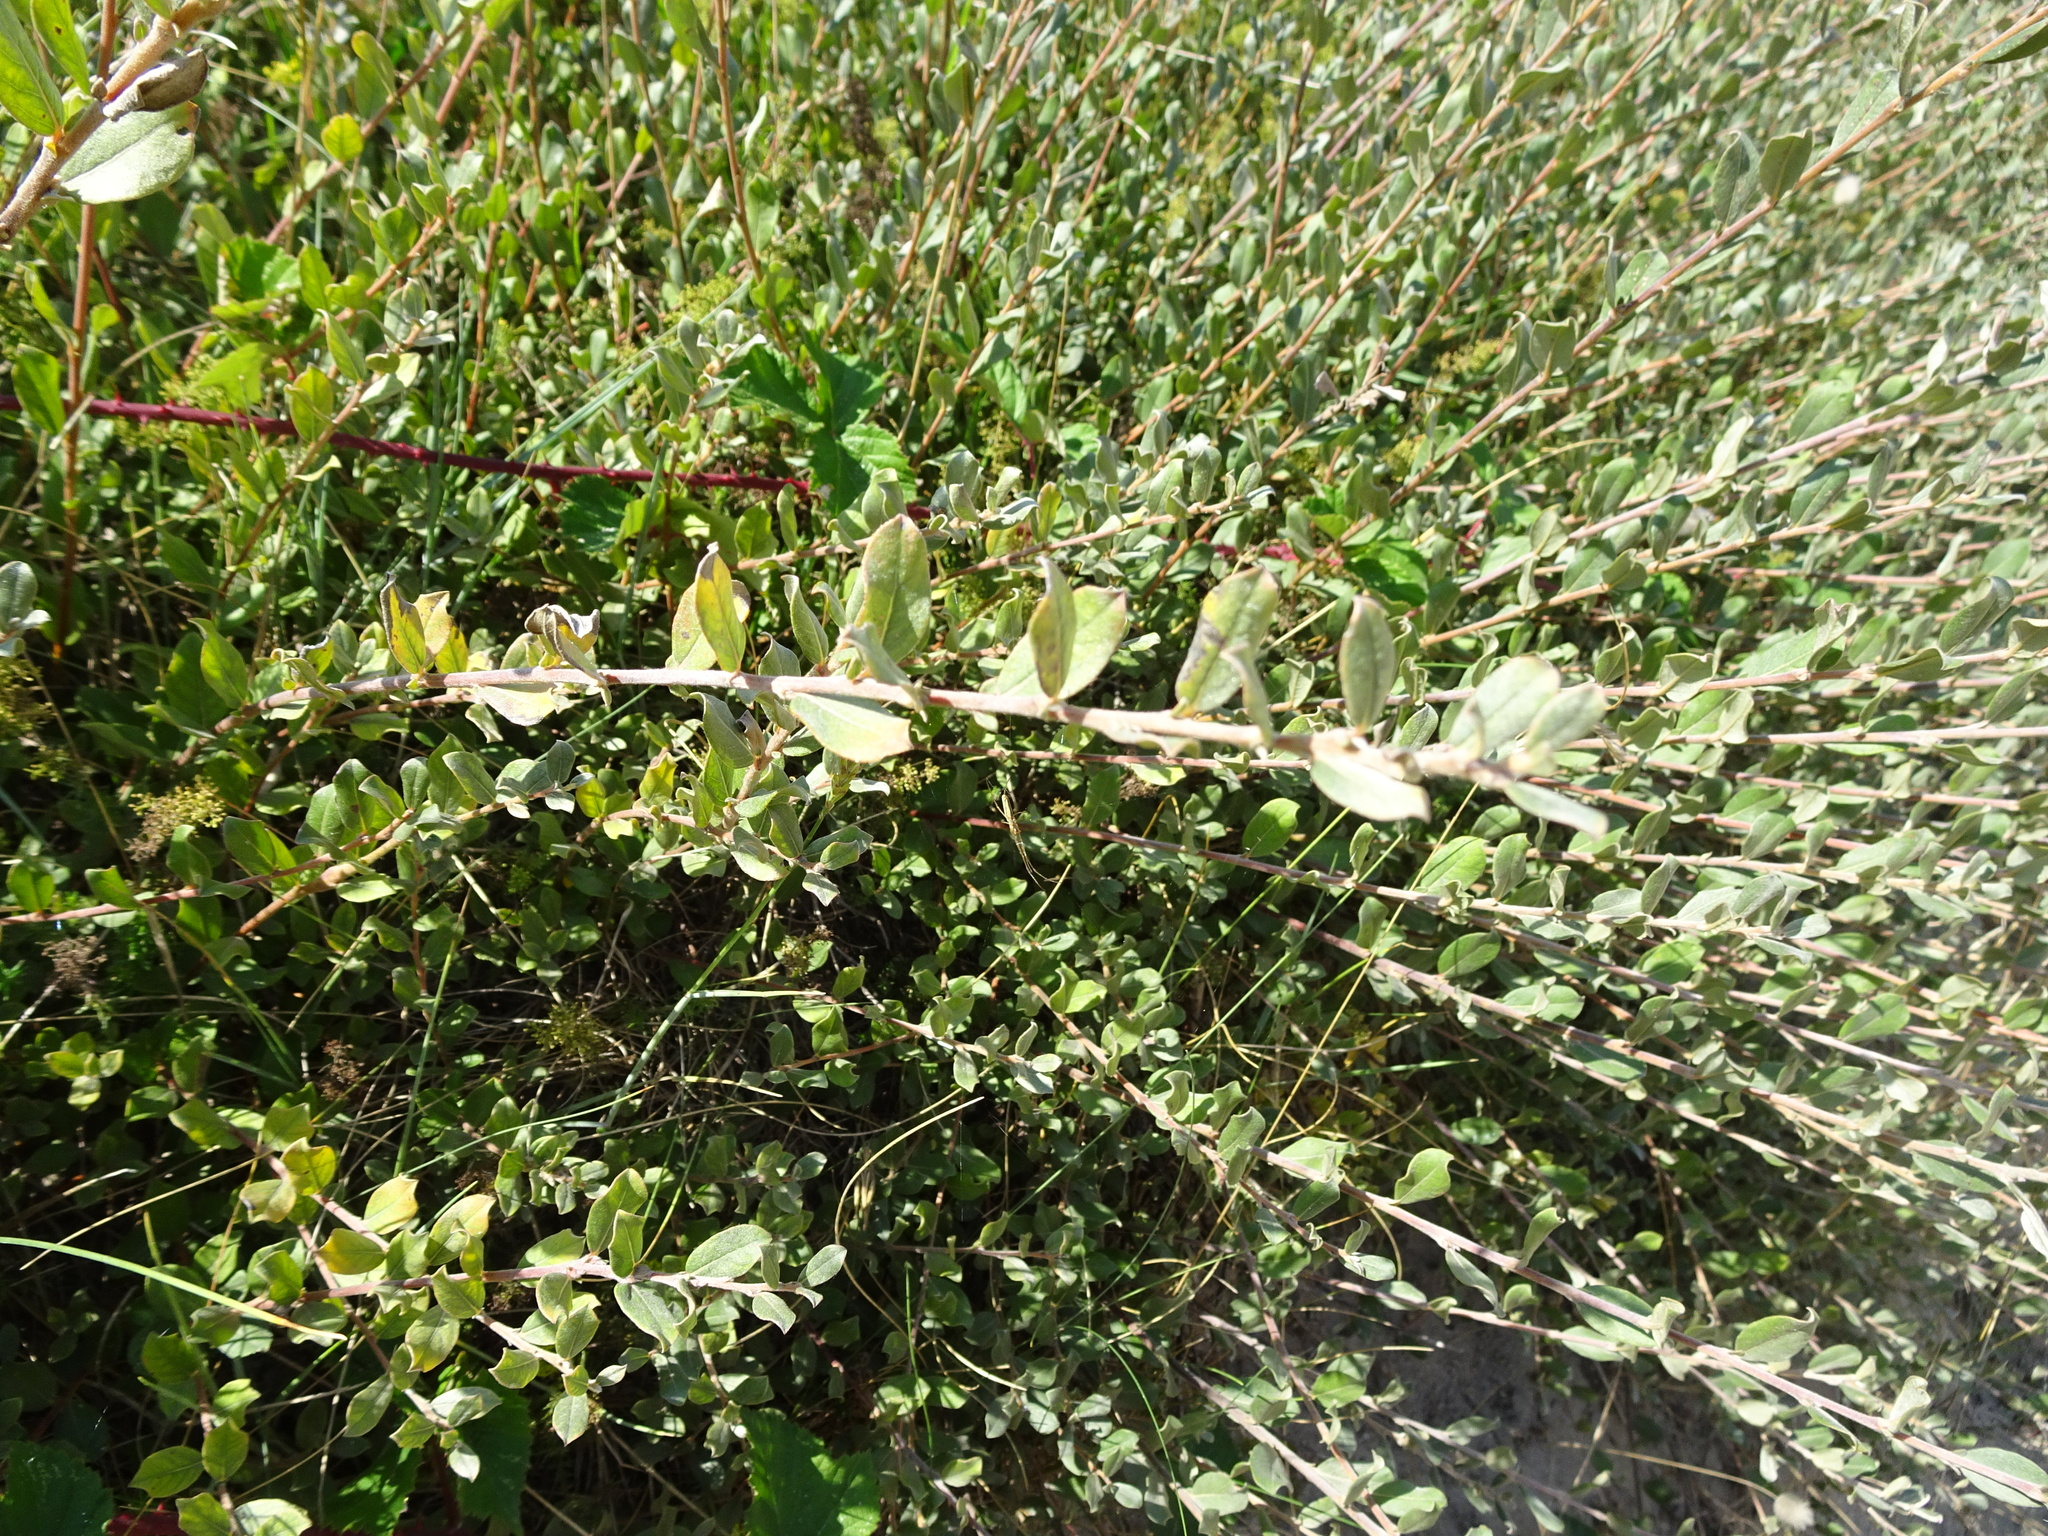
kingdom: Plantae
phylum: Tracheophyta
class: Magnoliopsida
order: Malpighiales
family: Salicaceae
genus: Salix
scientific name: Salix repens
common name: Creeping willow
